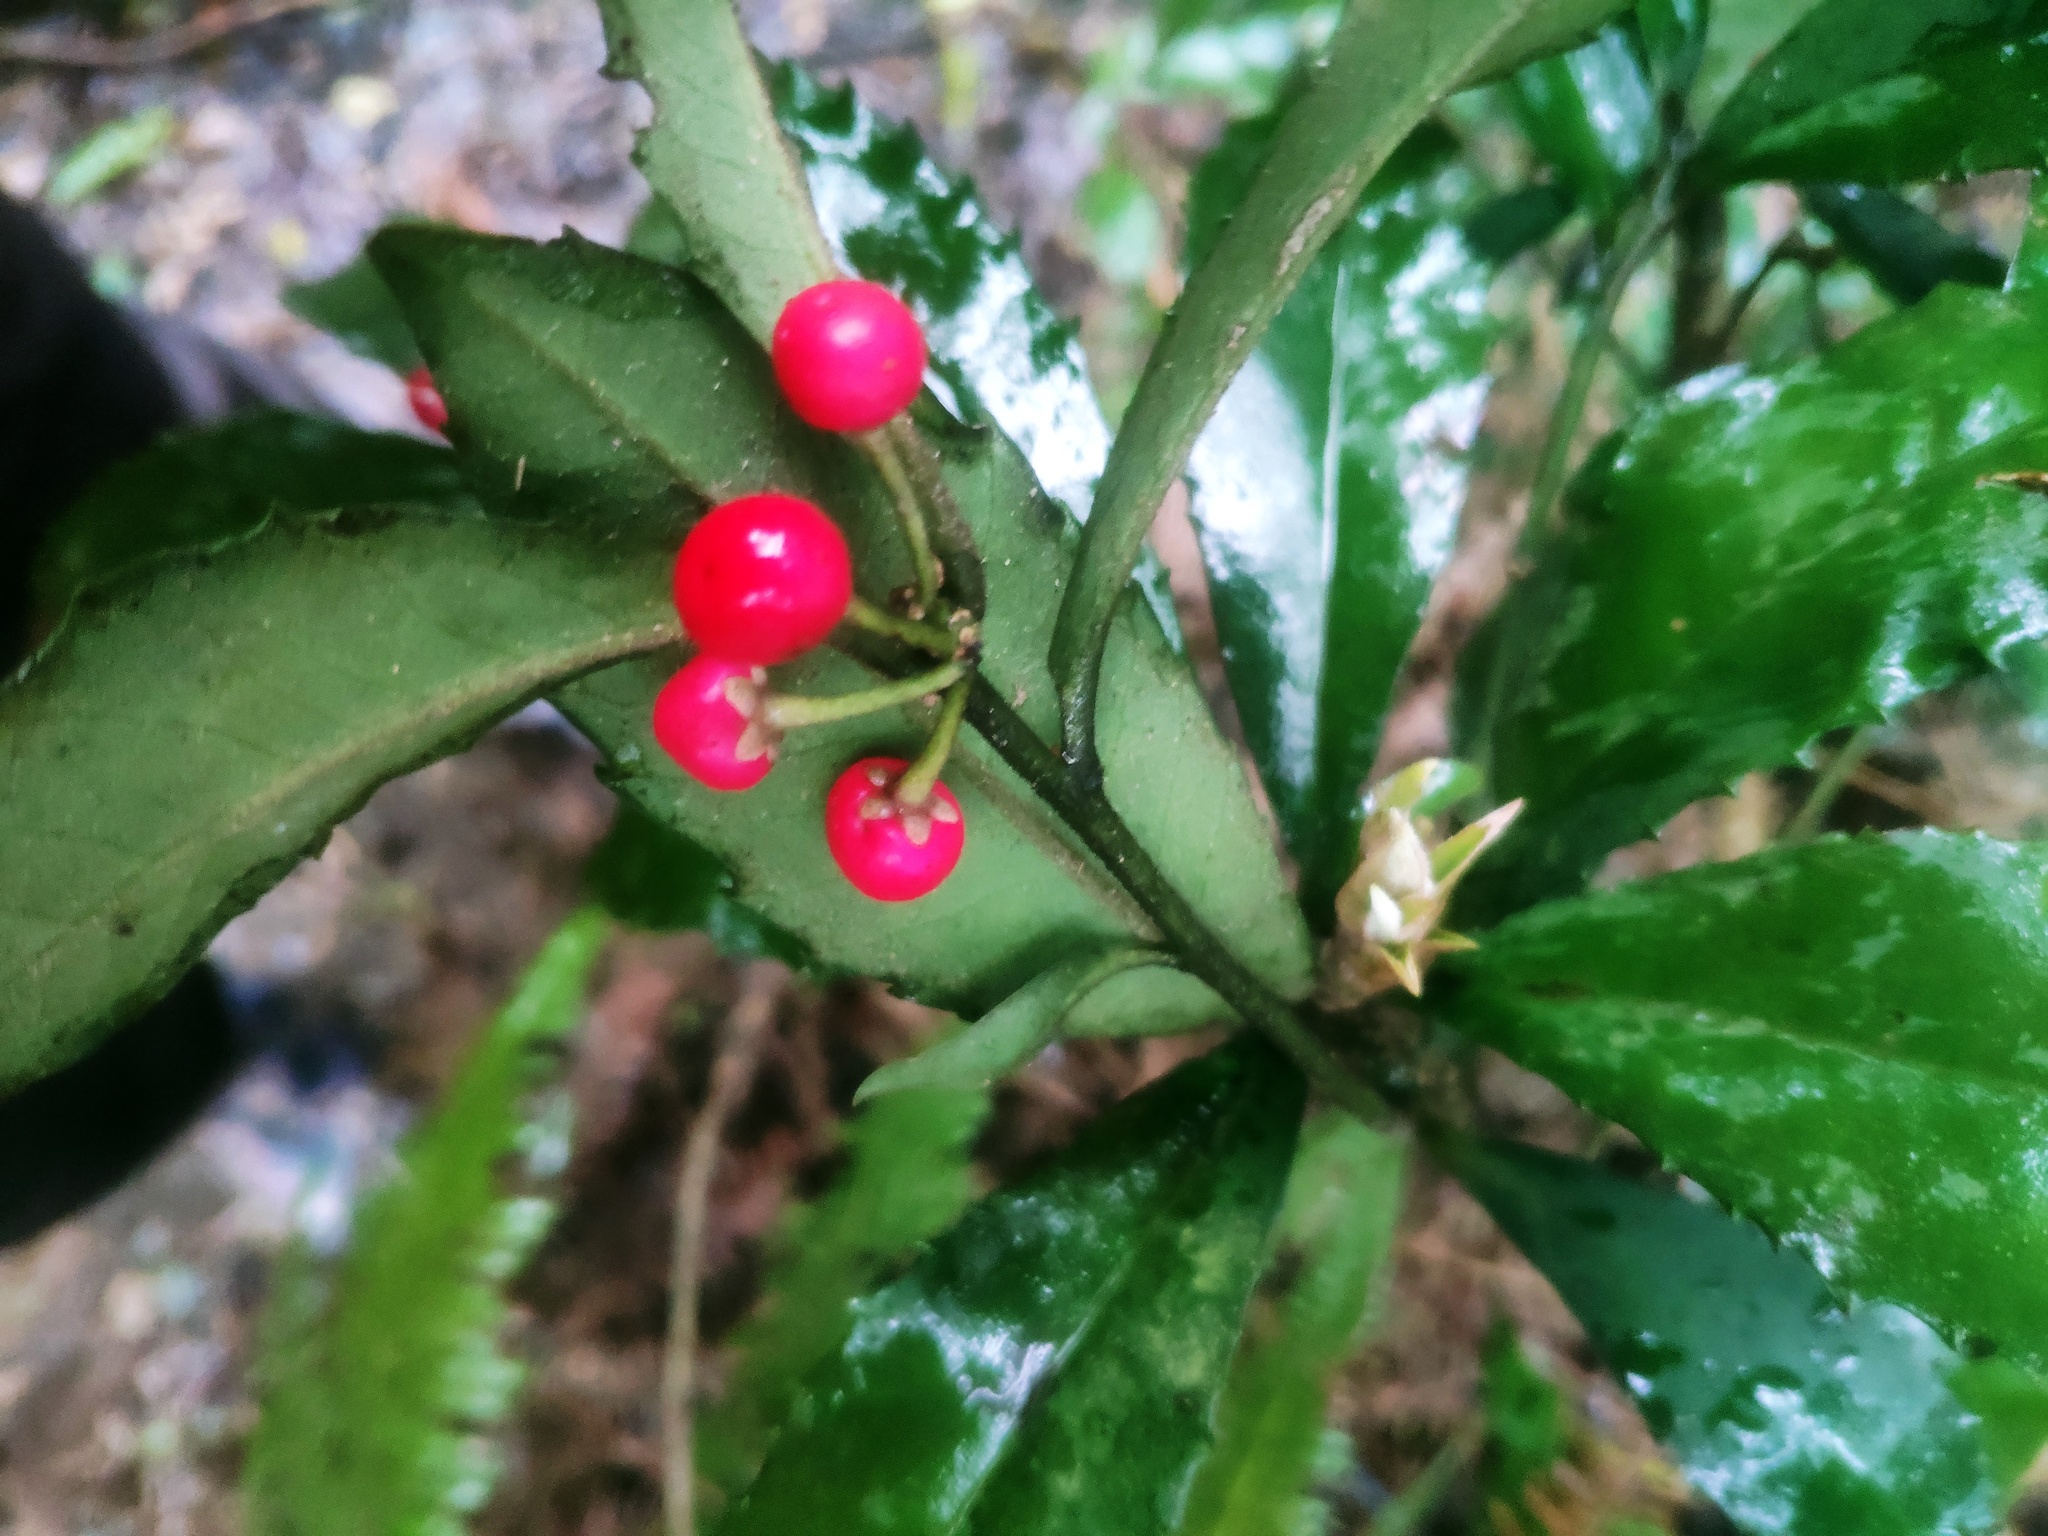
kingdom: Plantae
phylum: Tracheophyta
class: Magnoliopsida
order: Ericales
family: Primulaceae
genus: Ardisia
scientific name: Ardisia cornudentata
